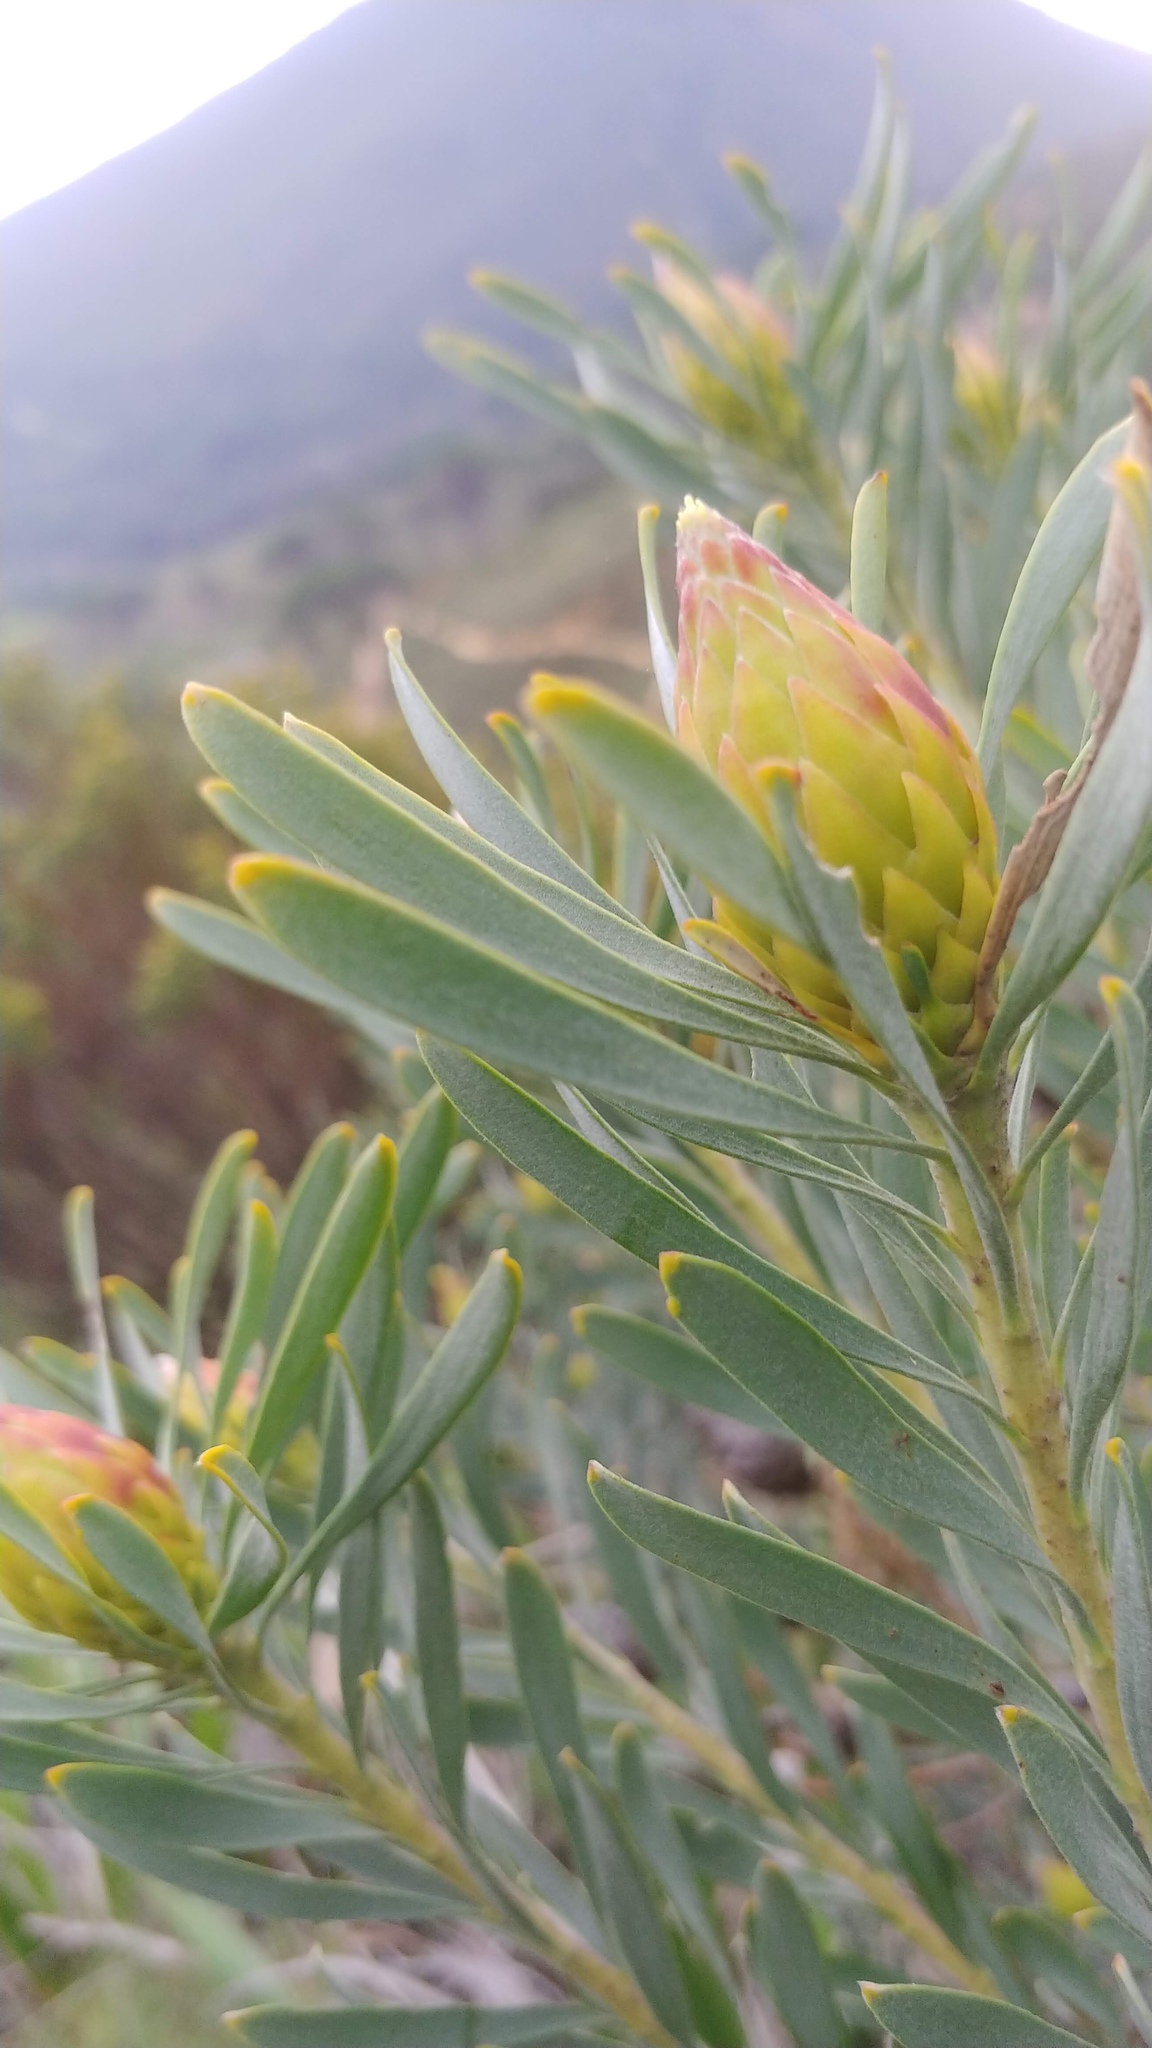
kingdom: Plantae
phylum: Tracheophyta
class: Magnoliopsida
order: Proteales
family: Proteaceae
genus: Leucadendron
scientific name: Leucadendron rubrum
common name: Spinning top
